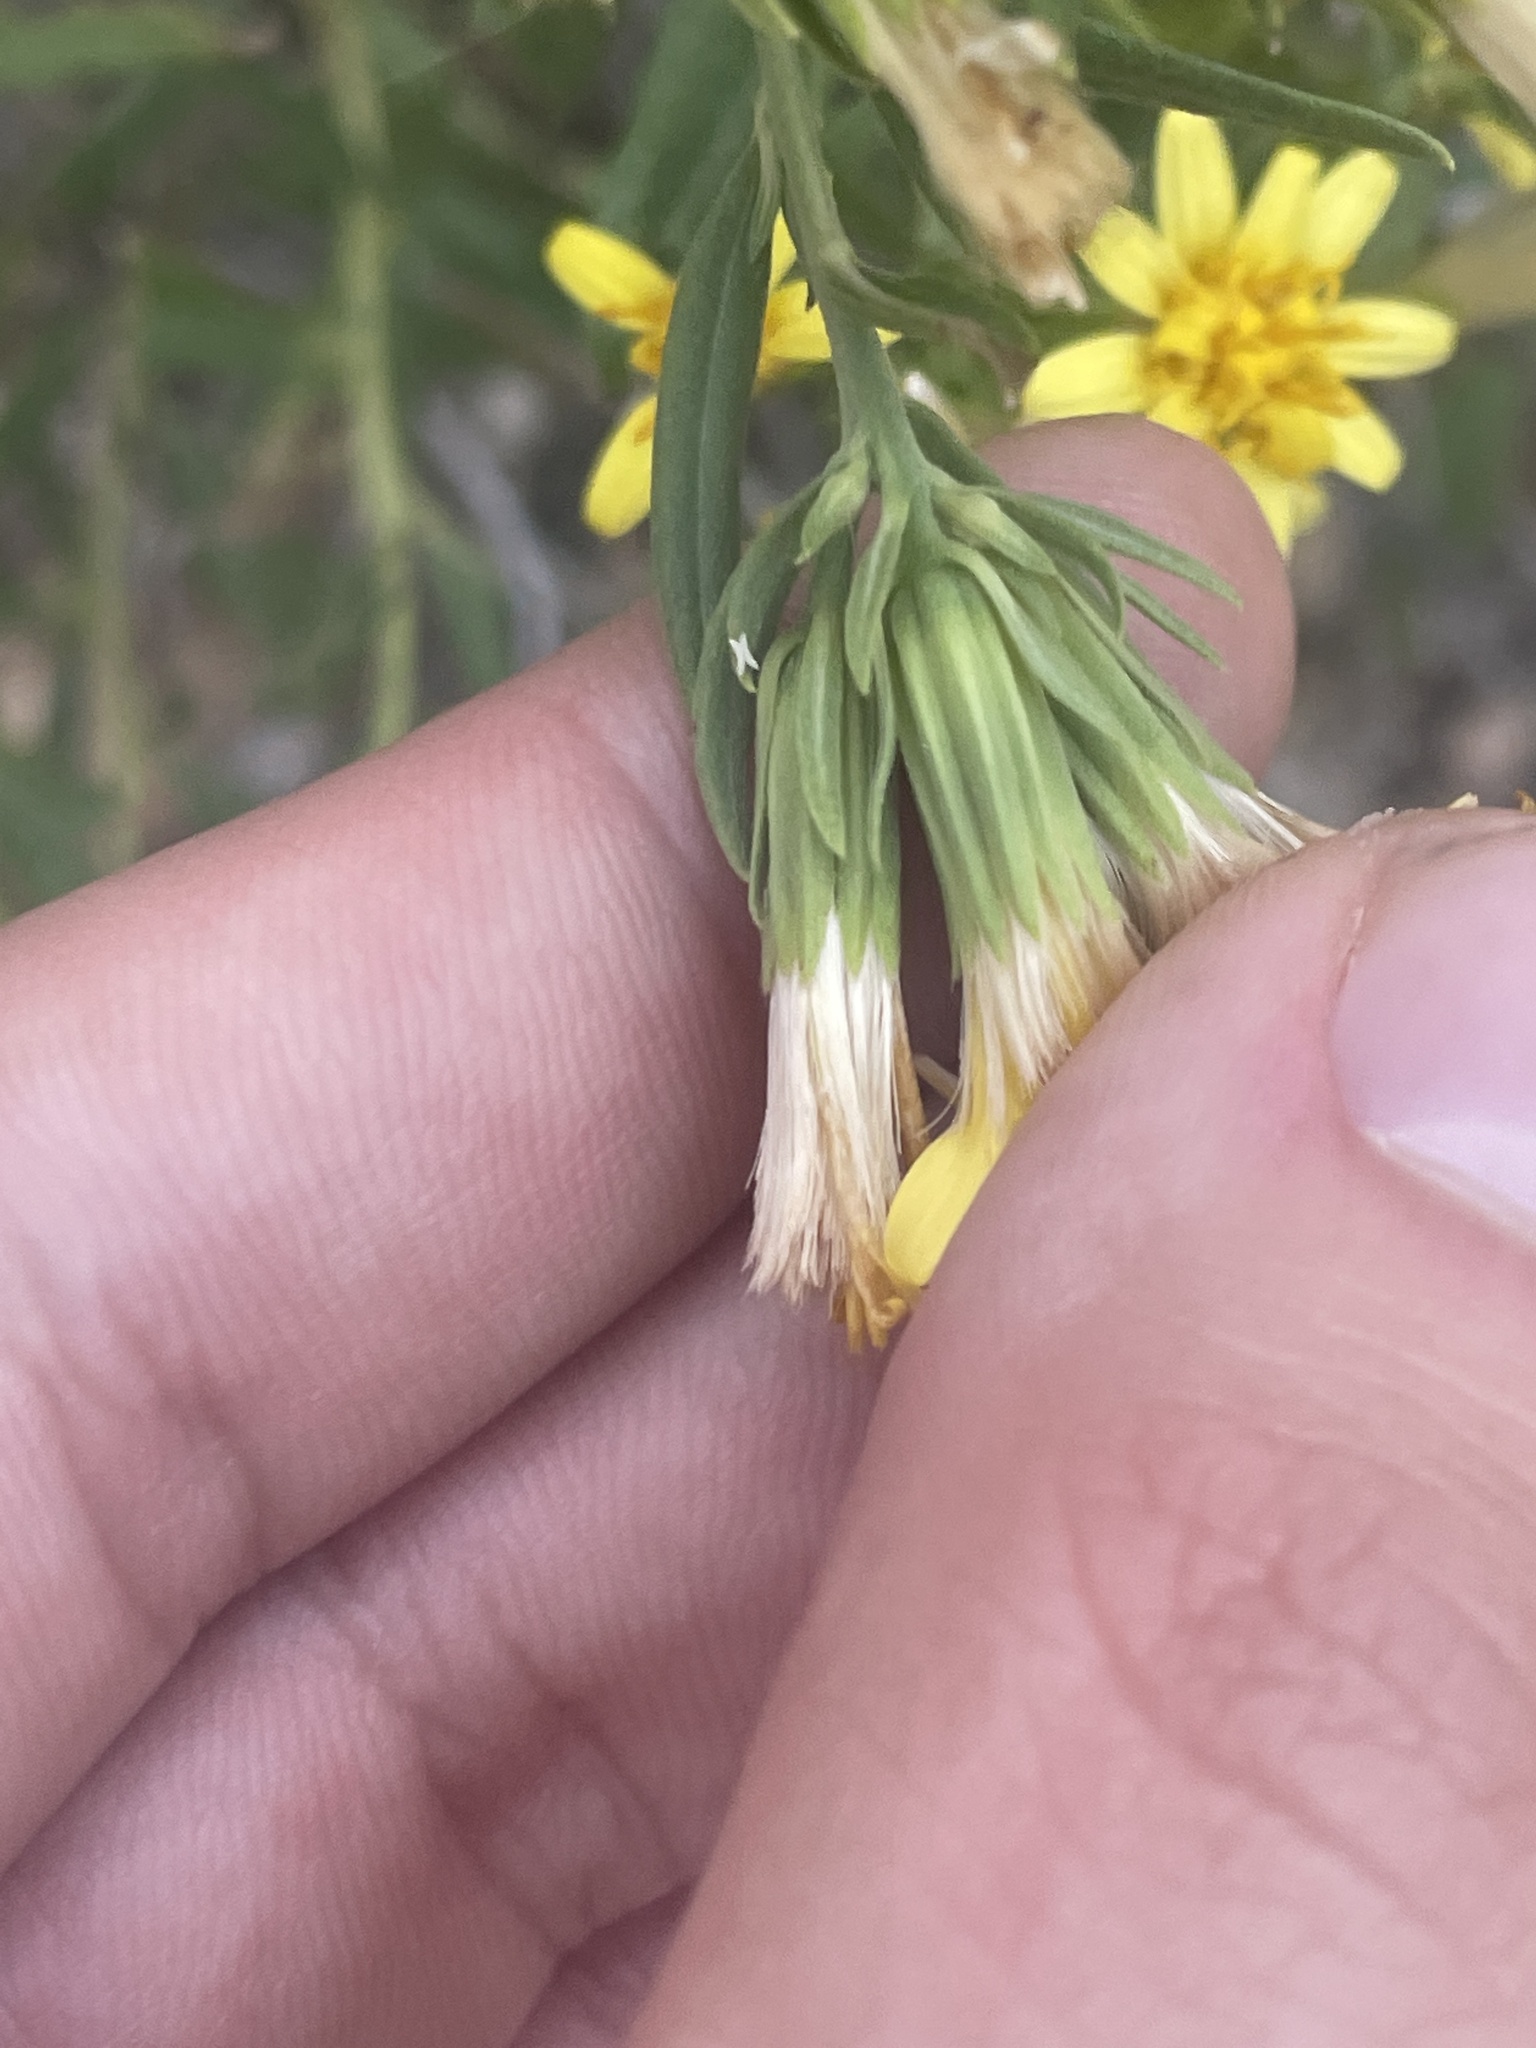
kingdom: Plantae
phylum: Tracheophyta
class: Magnoliopsida
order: Asterales
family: Asteraceae
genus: Trixis
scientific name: Trixis californica
